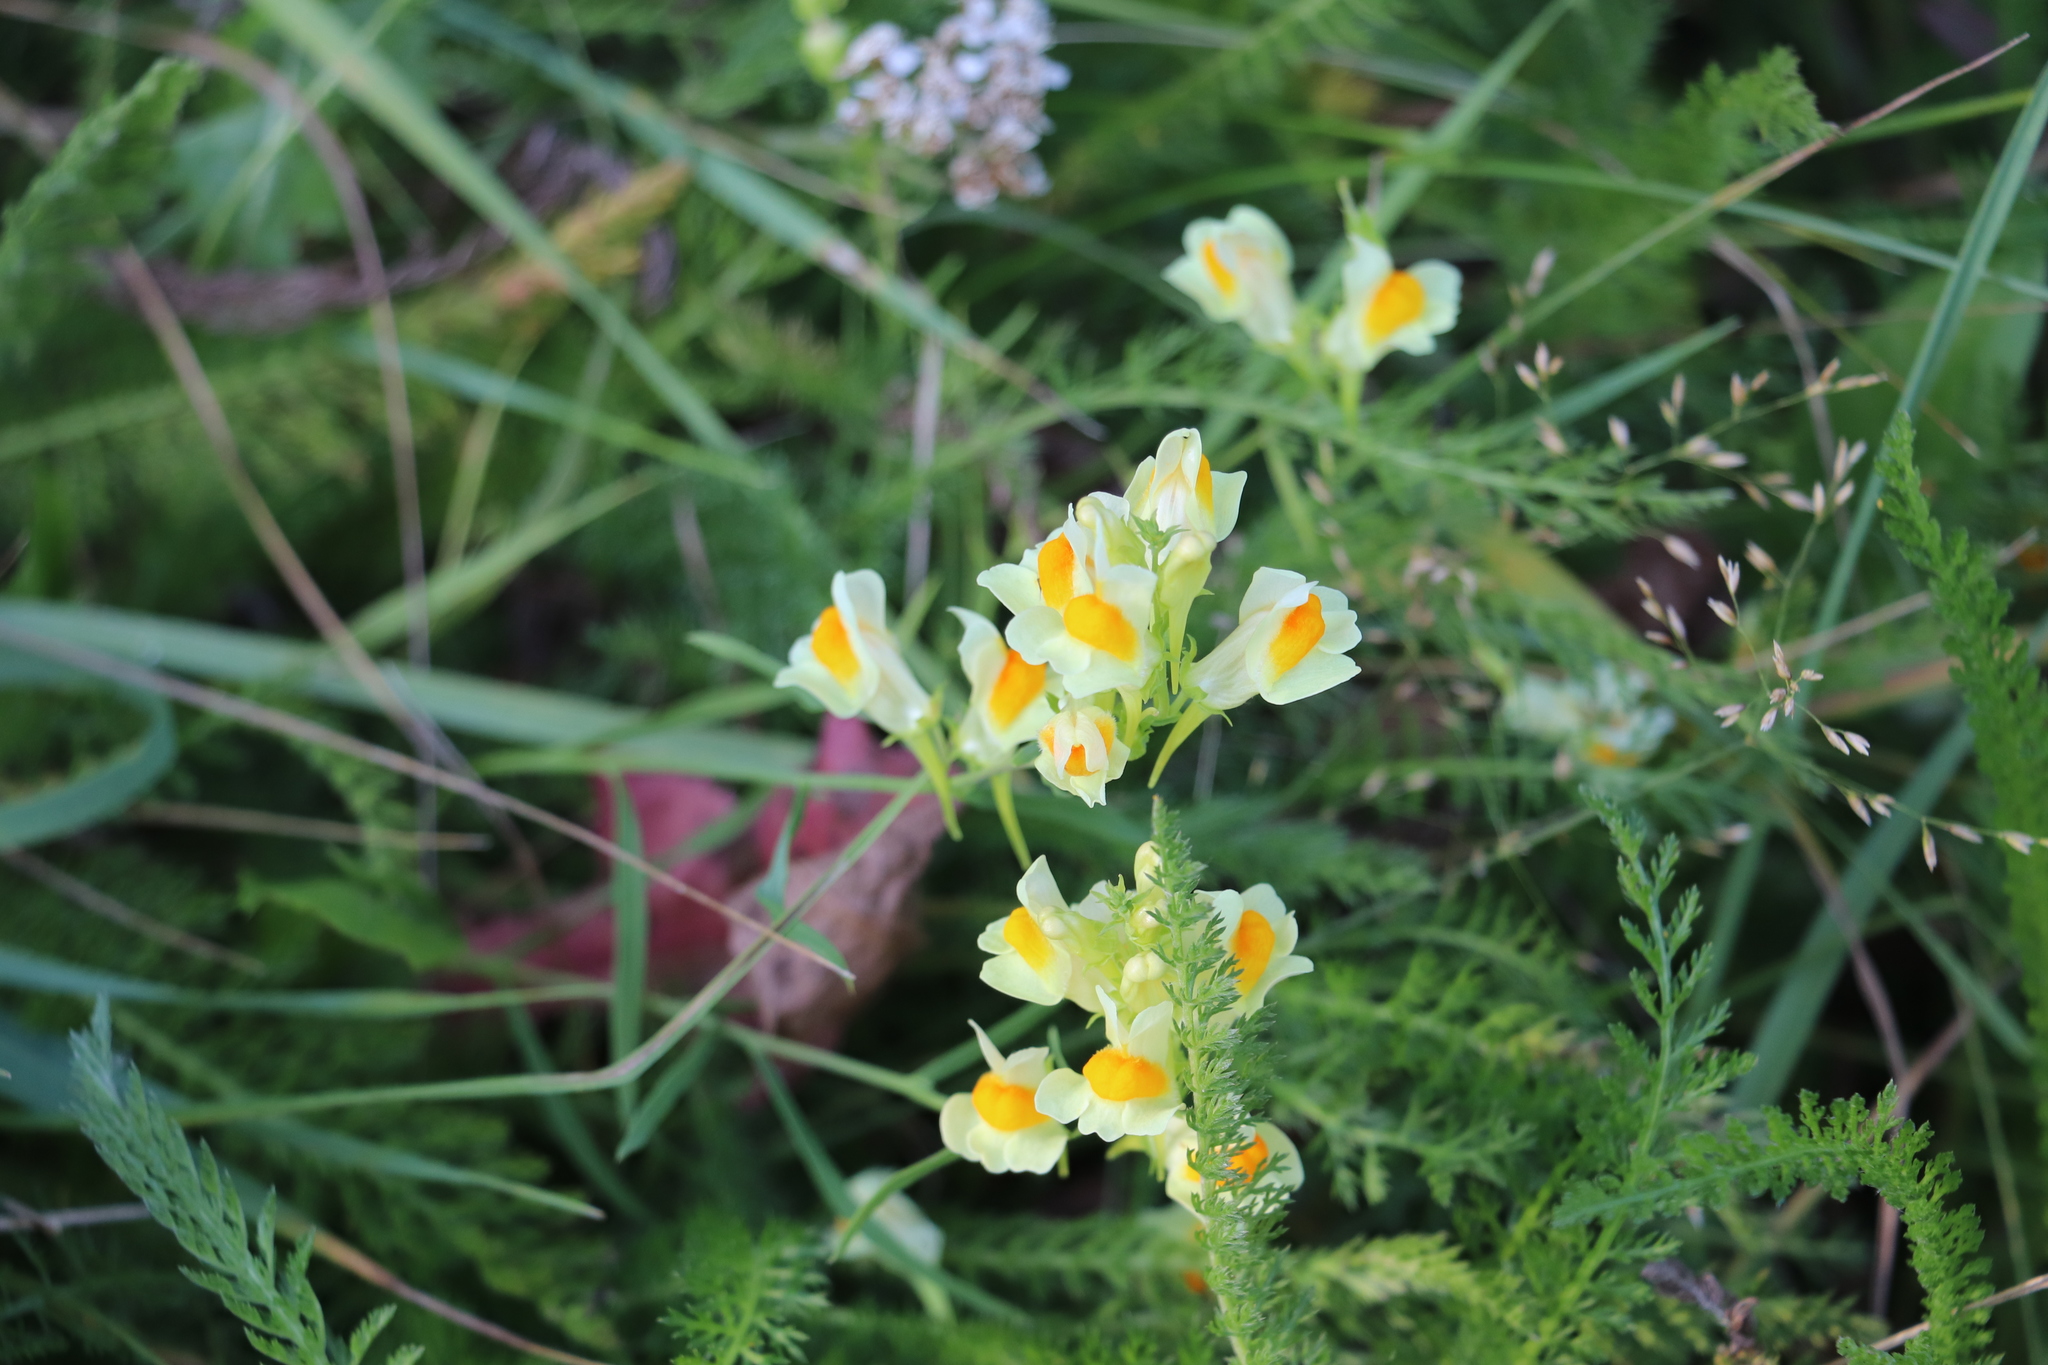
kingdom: Plantae
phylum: Tracheophyta
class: Magnoliopsida
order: Lamiales
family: Plantaginaceae
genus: Linaria
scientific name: Linaria vulgaris
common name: Butter and eggs
